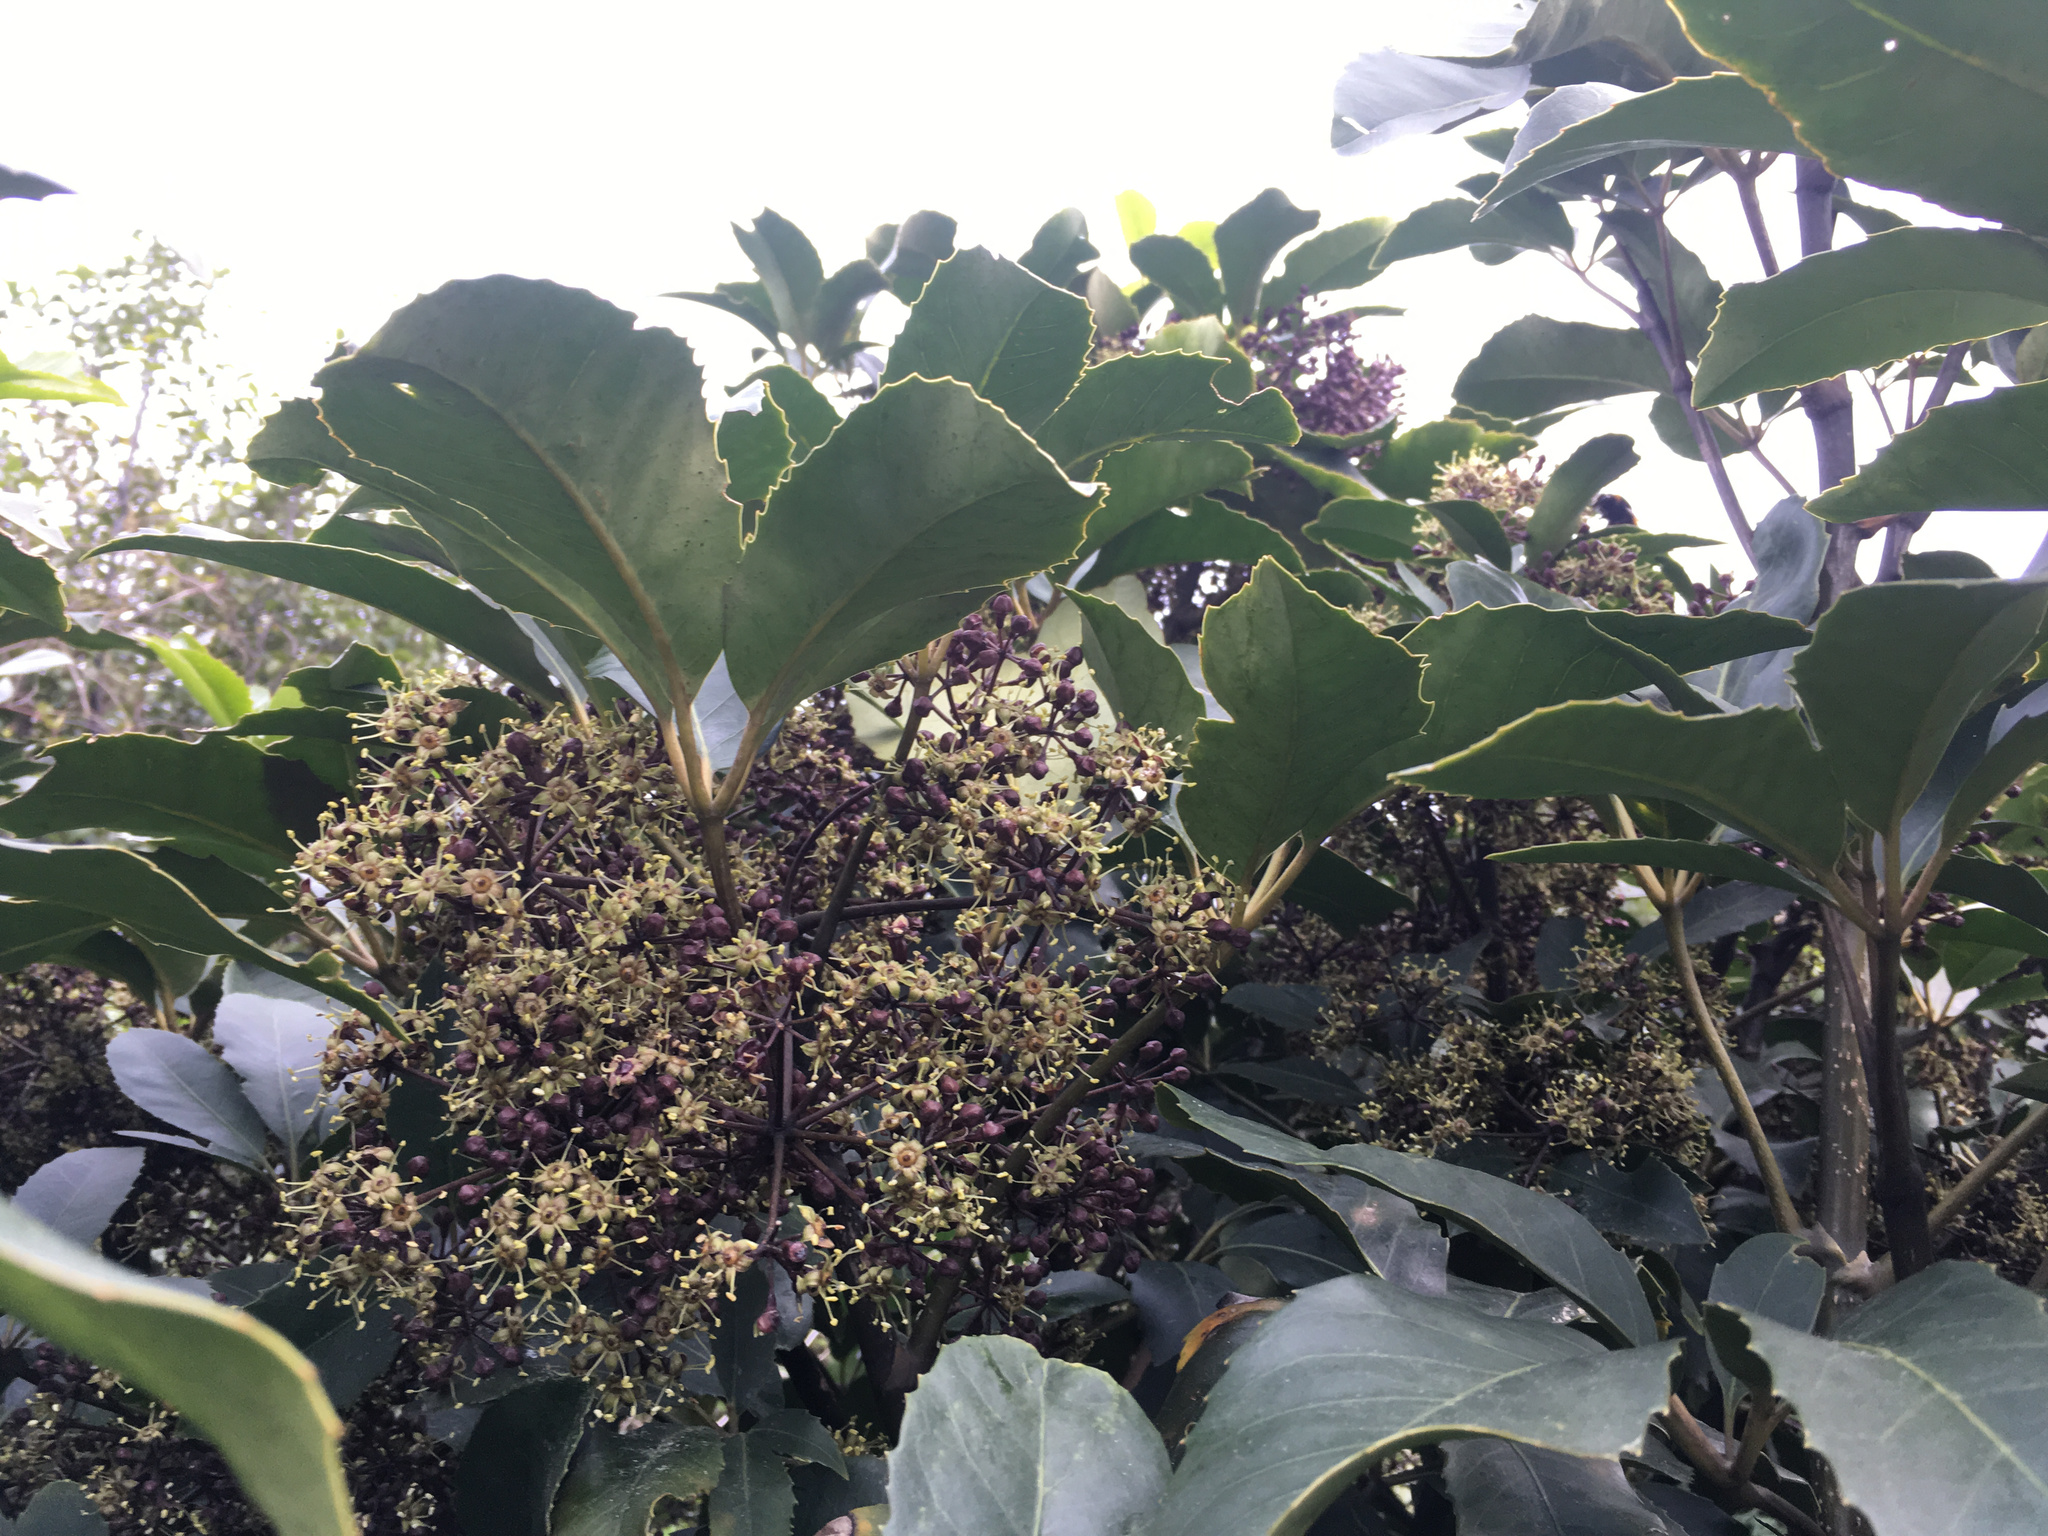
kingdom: Plantae
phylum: Tracheophyta
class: Magnoliopsida
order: Apiales
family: Araliaceae
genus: Neopanax
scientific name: Neopanax arboreus
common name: Five-fingers
